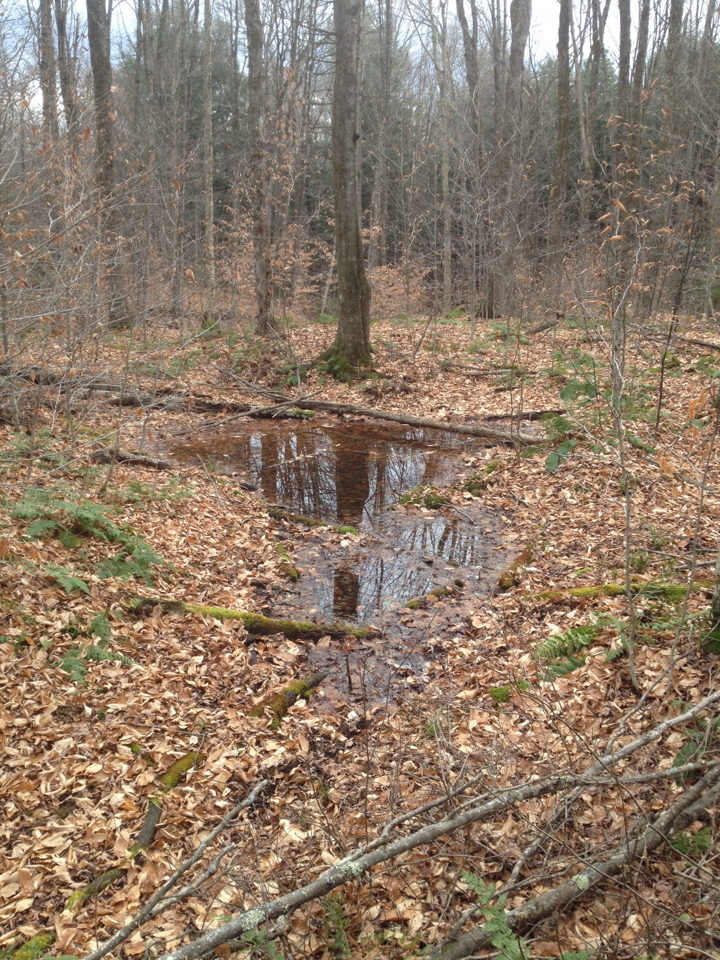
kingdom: Plantae
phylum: Tracheophyta
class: Magnoliopsida
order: Fagales
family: Fagaceae
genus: Fagus
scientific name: Fagus grandifolia
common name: American beech
